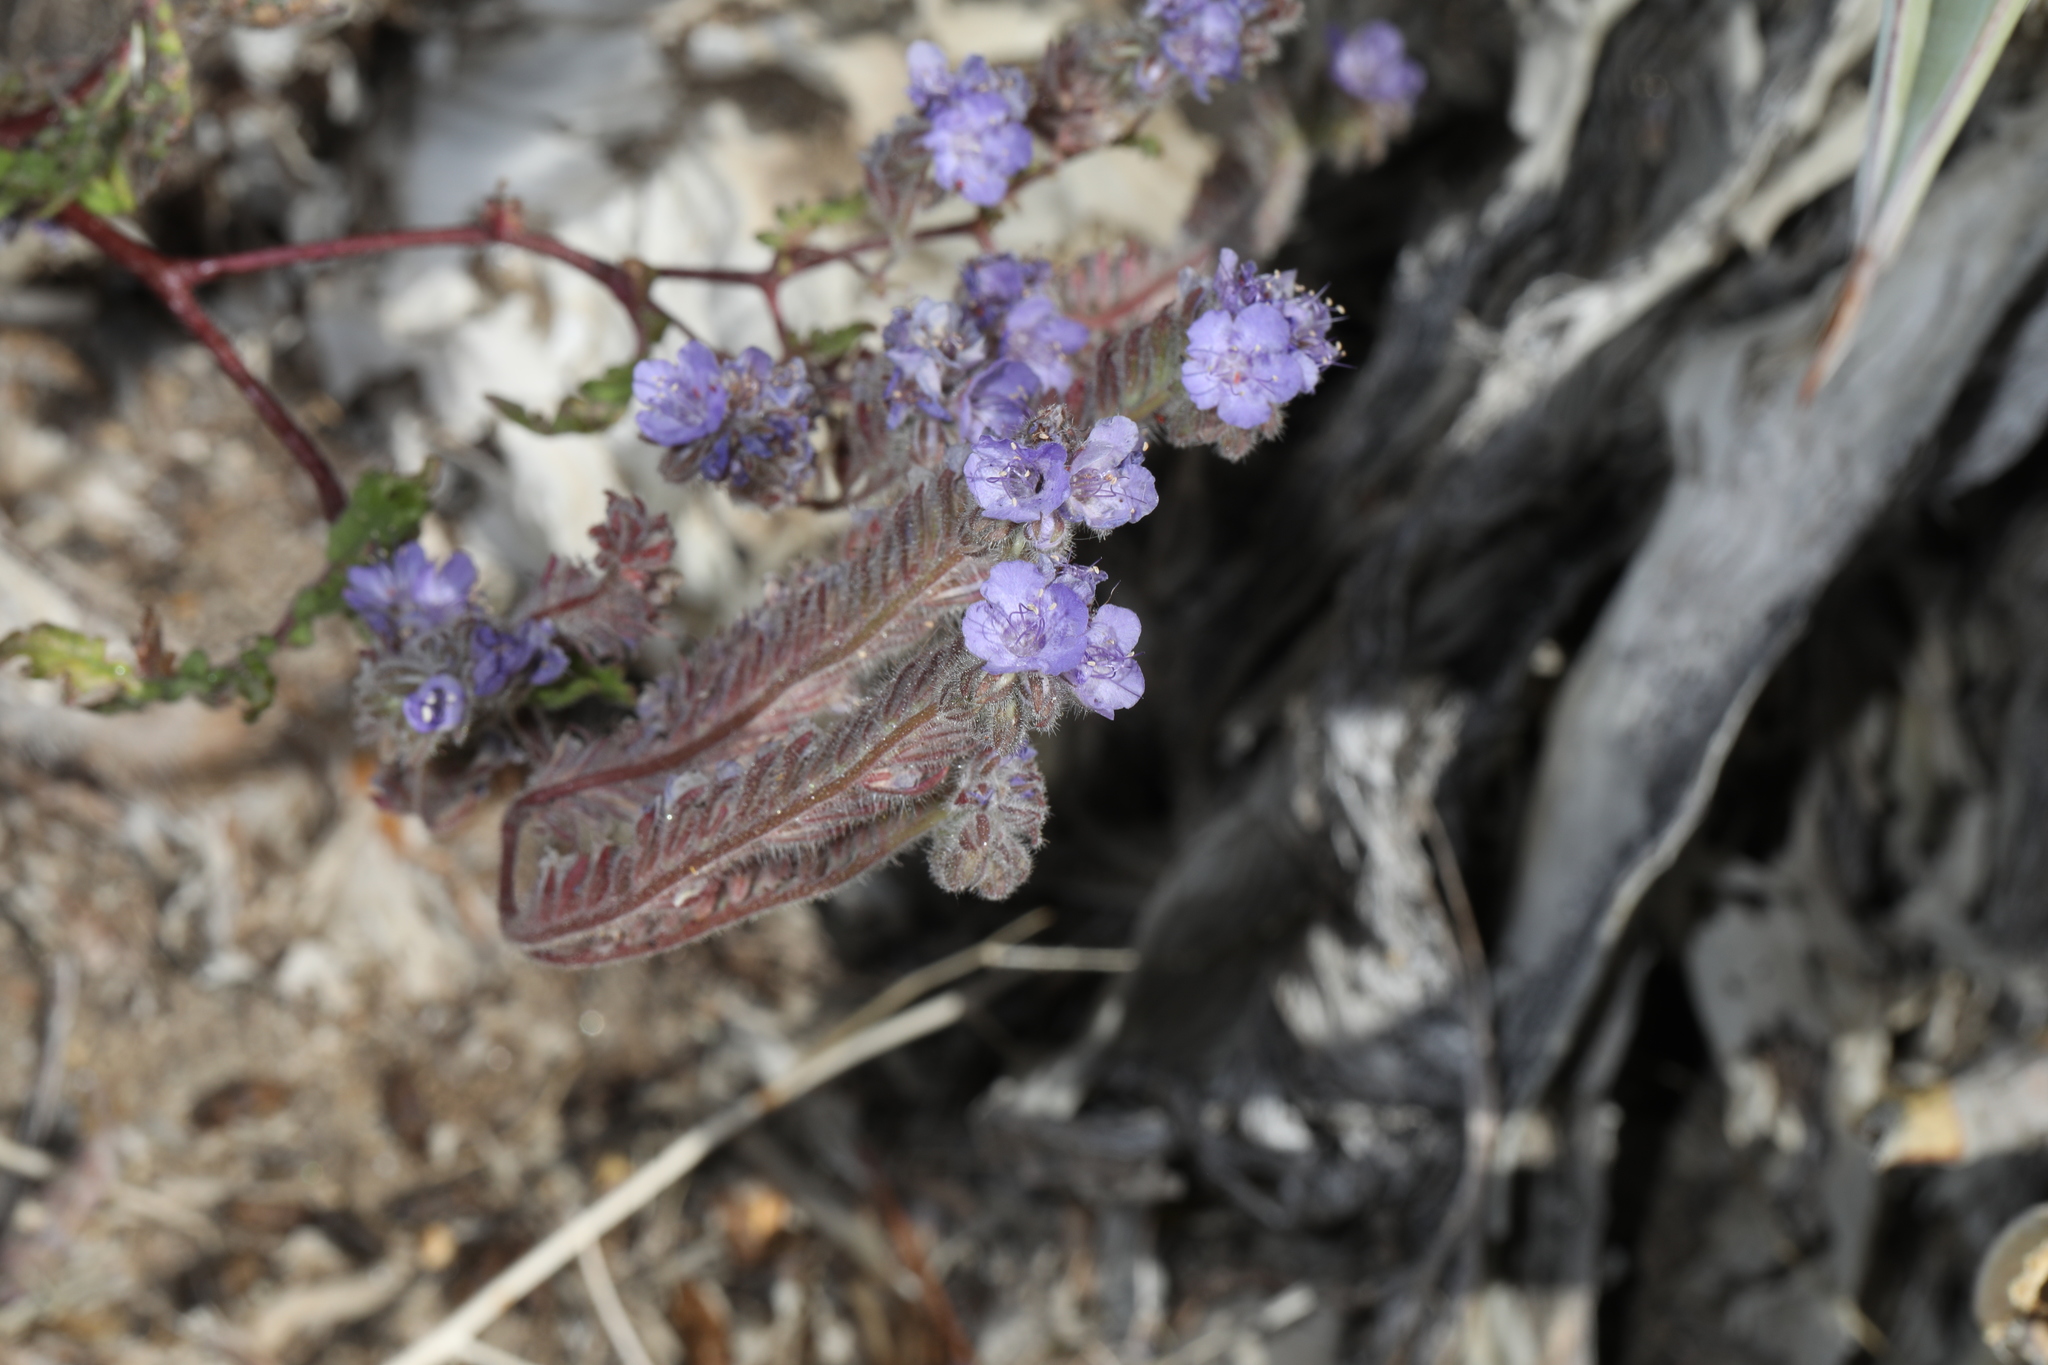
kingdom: Plantae
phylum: Tracheophyta
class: Magnoliopsida
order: Boraginales
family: Hydrophyllaceae
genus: Phacelia
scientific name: Phacelia distans
